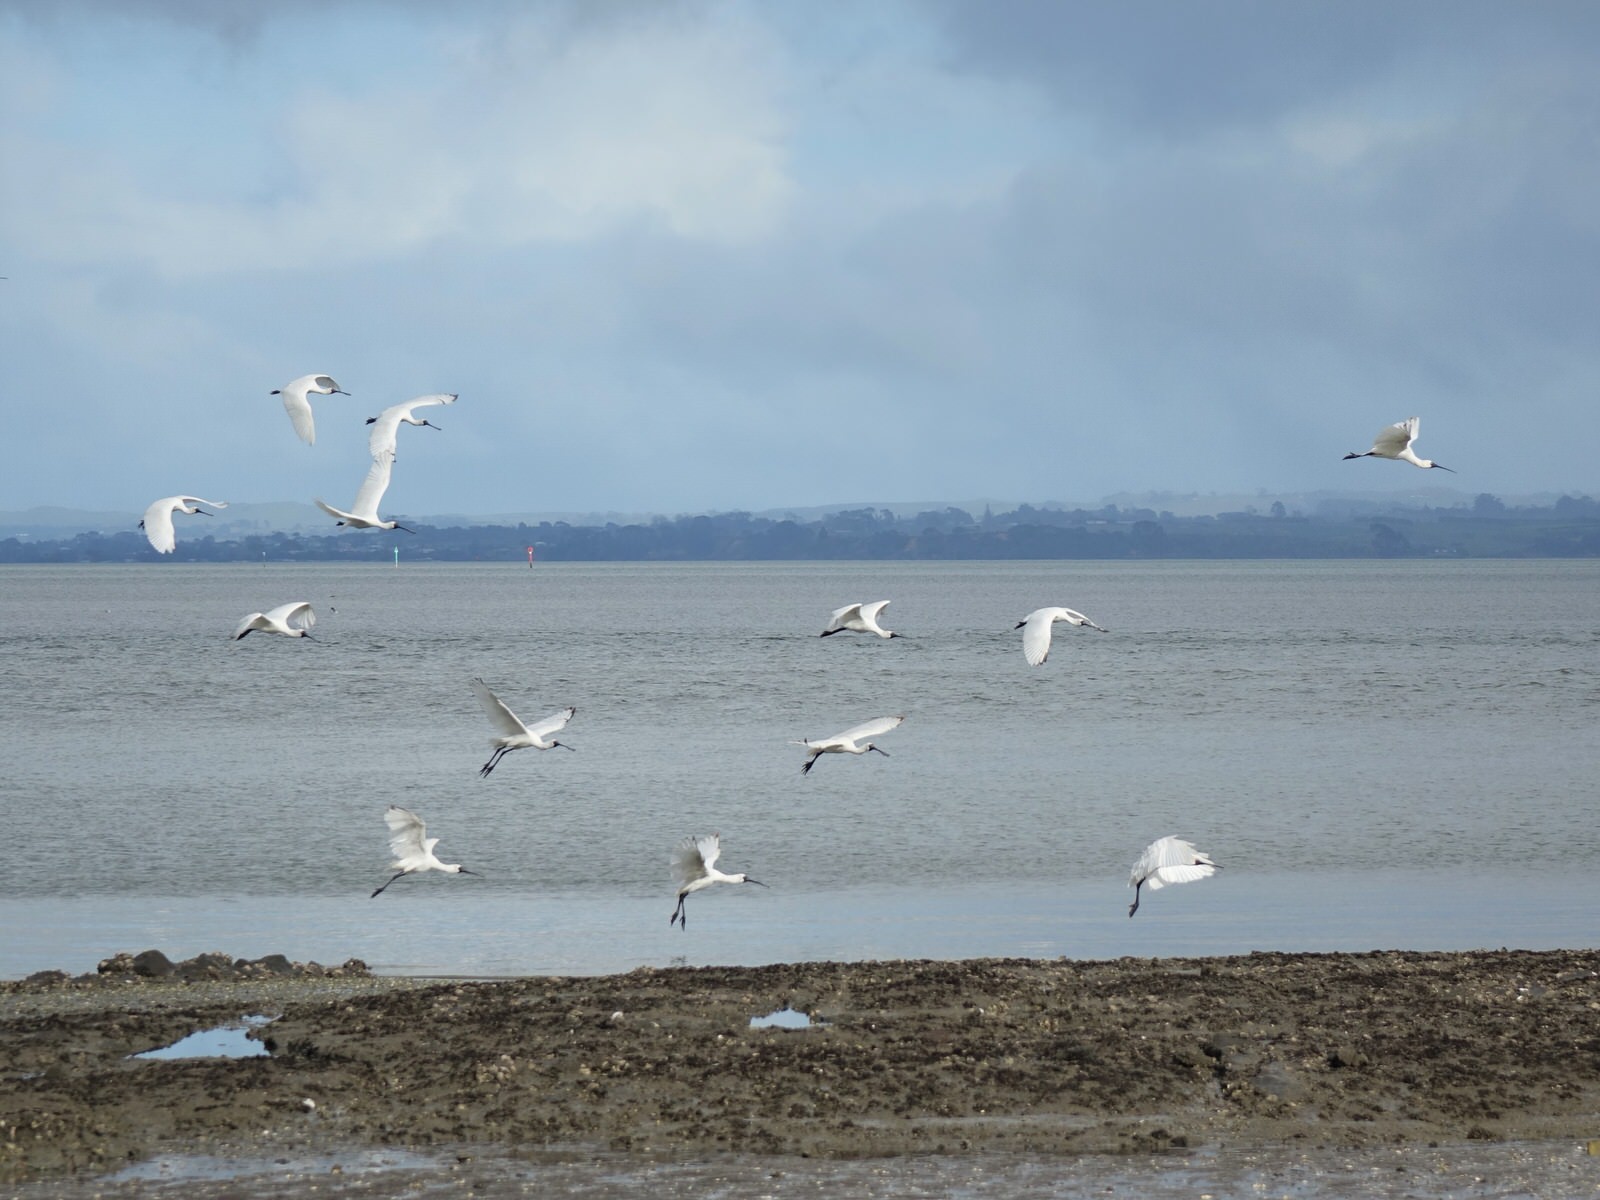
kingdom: Animalia
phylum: Chordata
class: Aves
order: Pelecaniformes
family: Threskiornithidae
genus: Platalea
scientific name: Platalea regia
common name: Royal spoonbill
